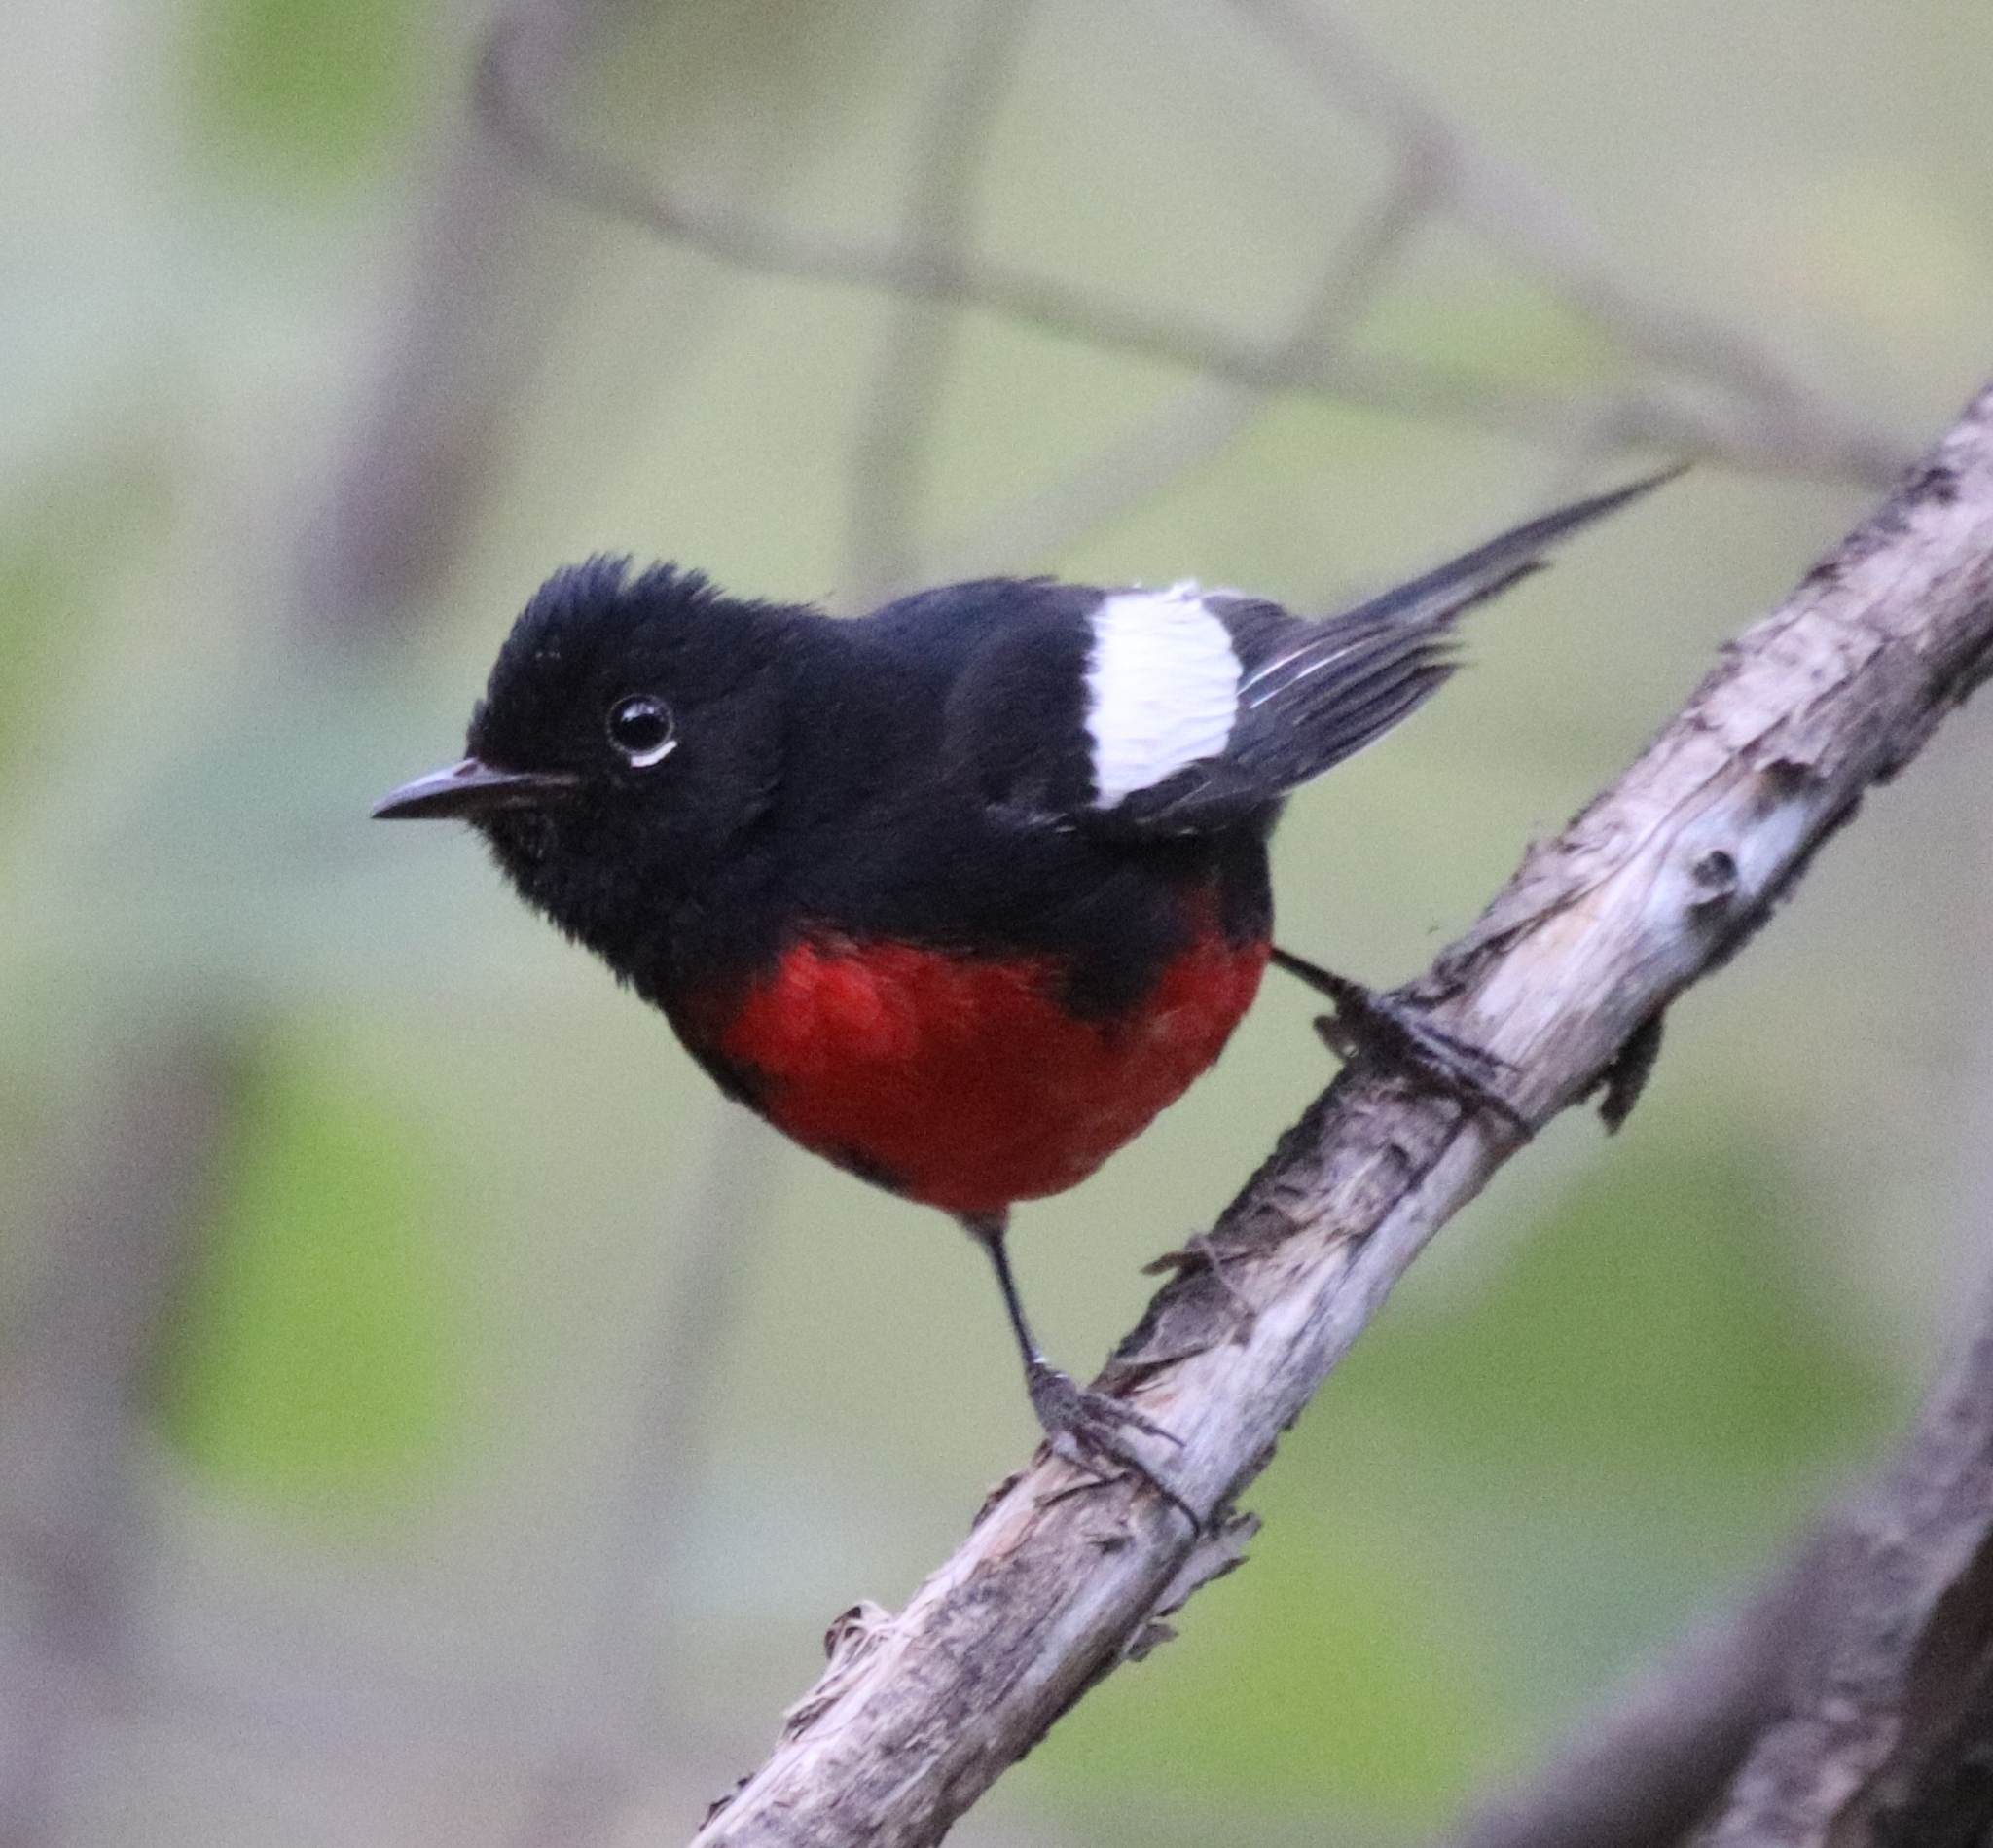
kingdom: Animalia
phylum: Chordata
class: Aves
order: Passeriformes
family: Parulidae
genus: Myioborus
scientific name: Myioborus pictus
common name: Painted whitestart
